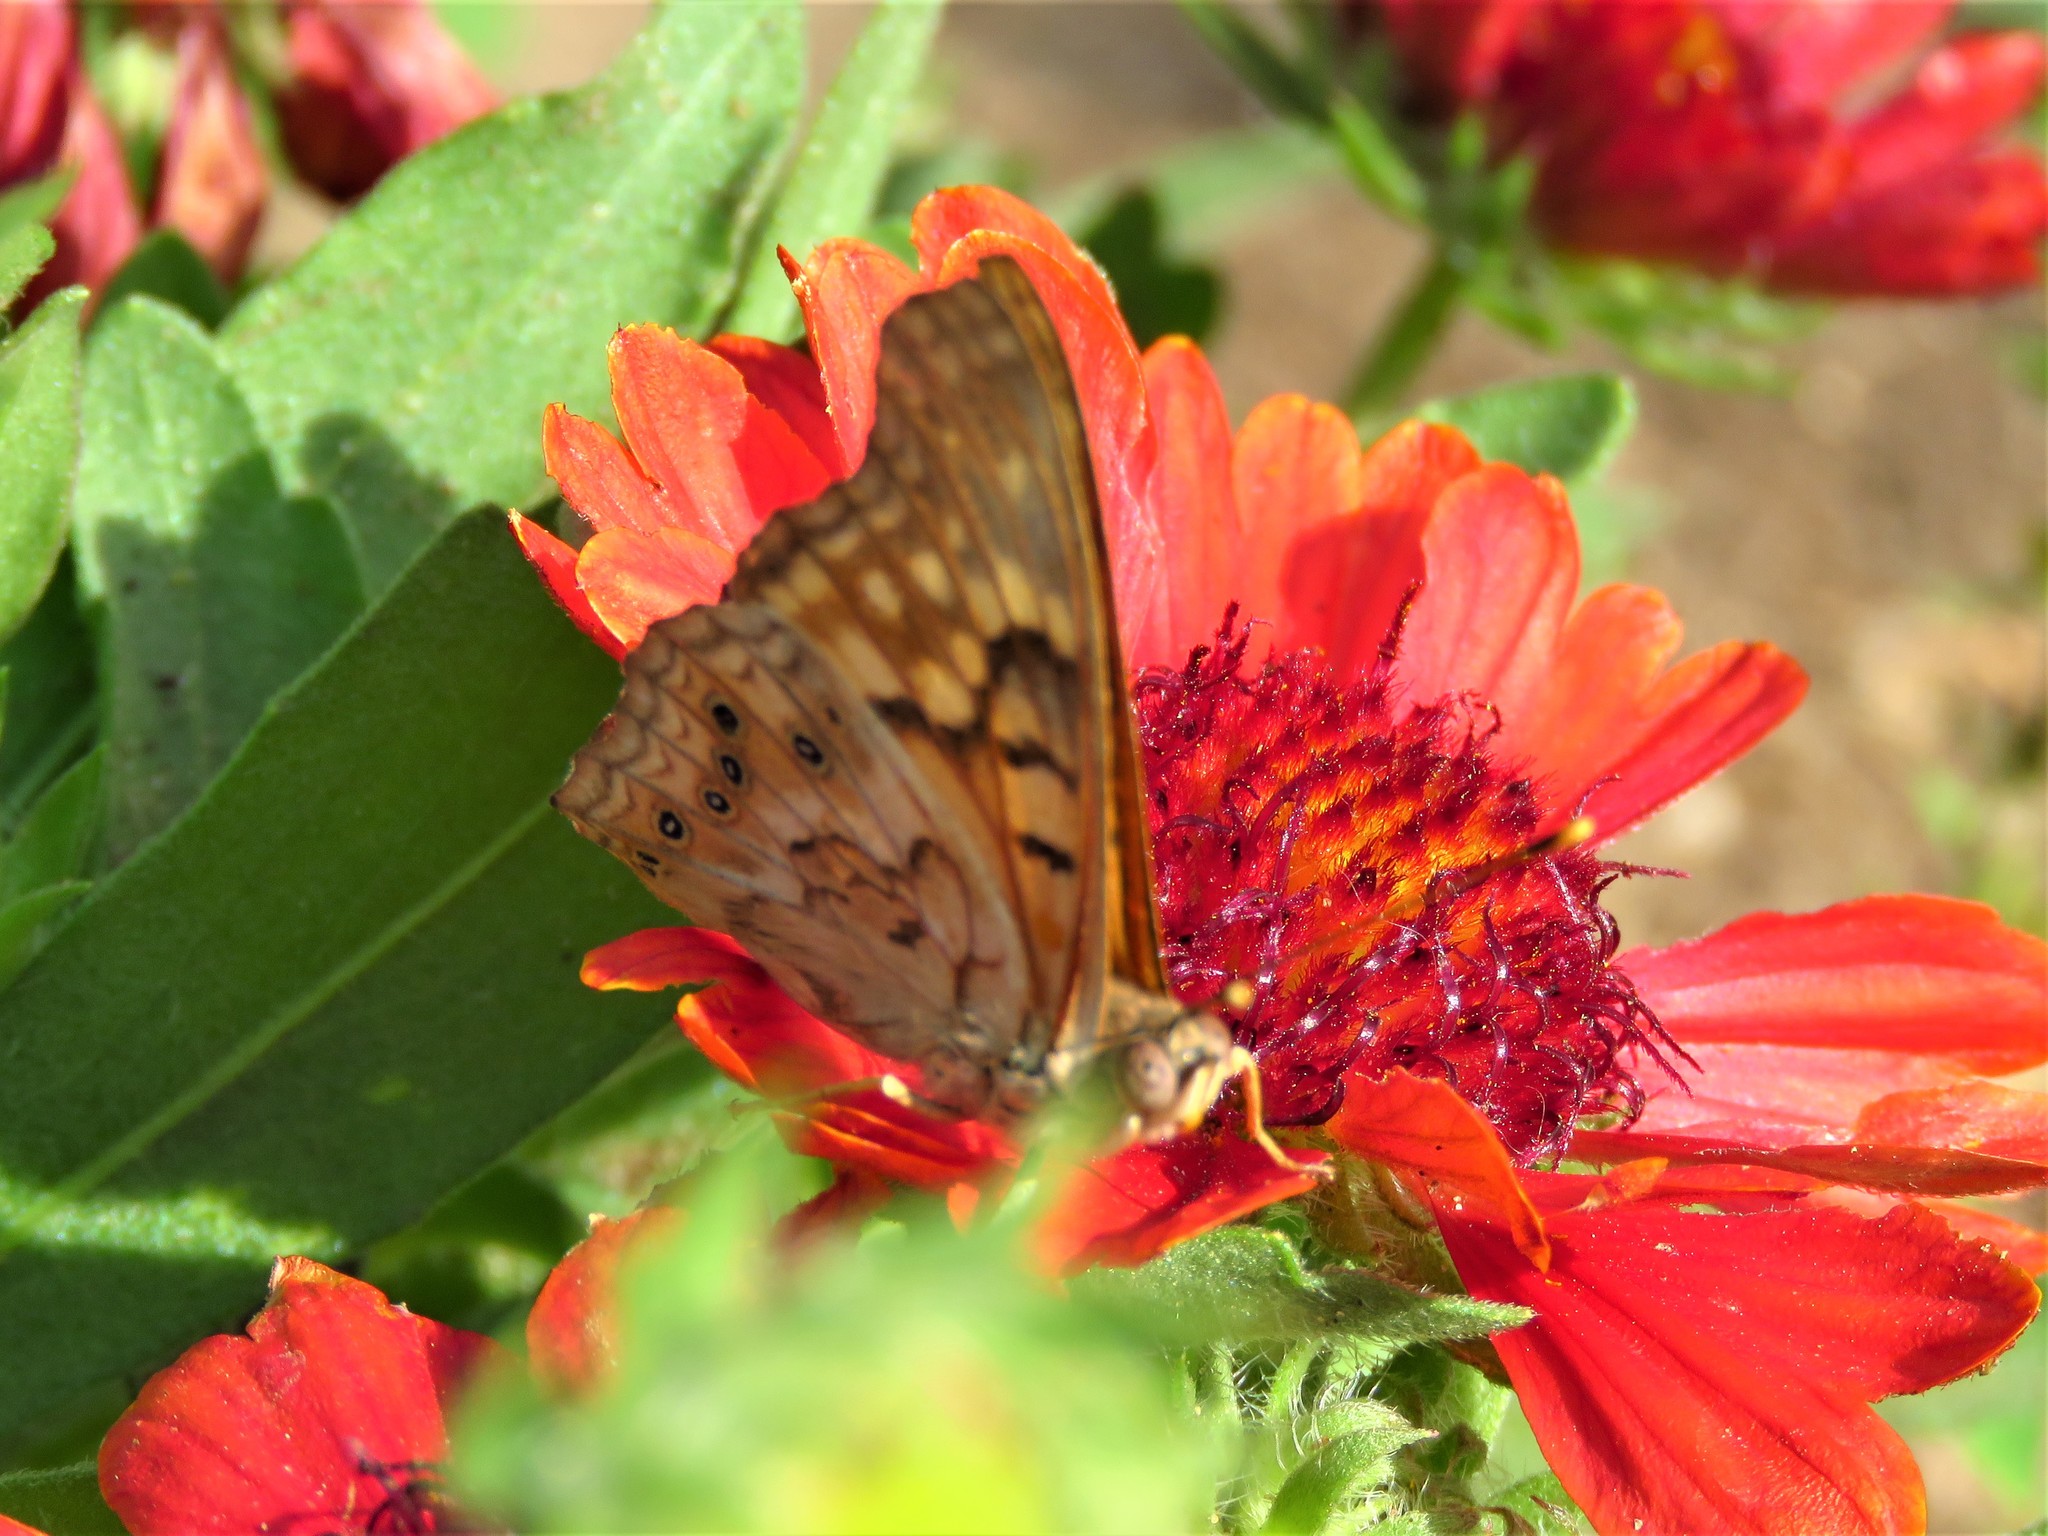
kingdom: Animalia
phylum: Arthropoda
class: Insecta
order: Lepidoptera
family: Nymphalidae
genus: Asterocampa
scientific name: Asterocampa clyton
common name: Tawny emperor
